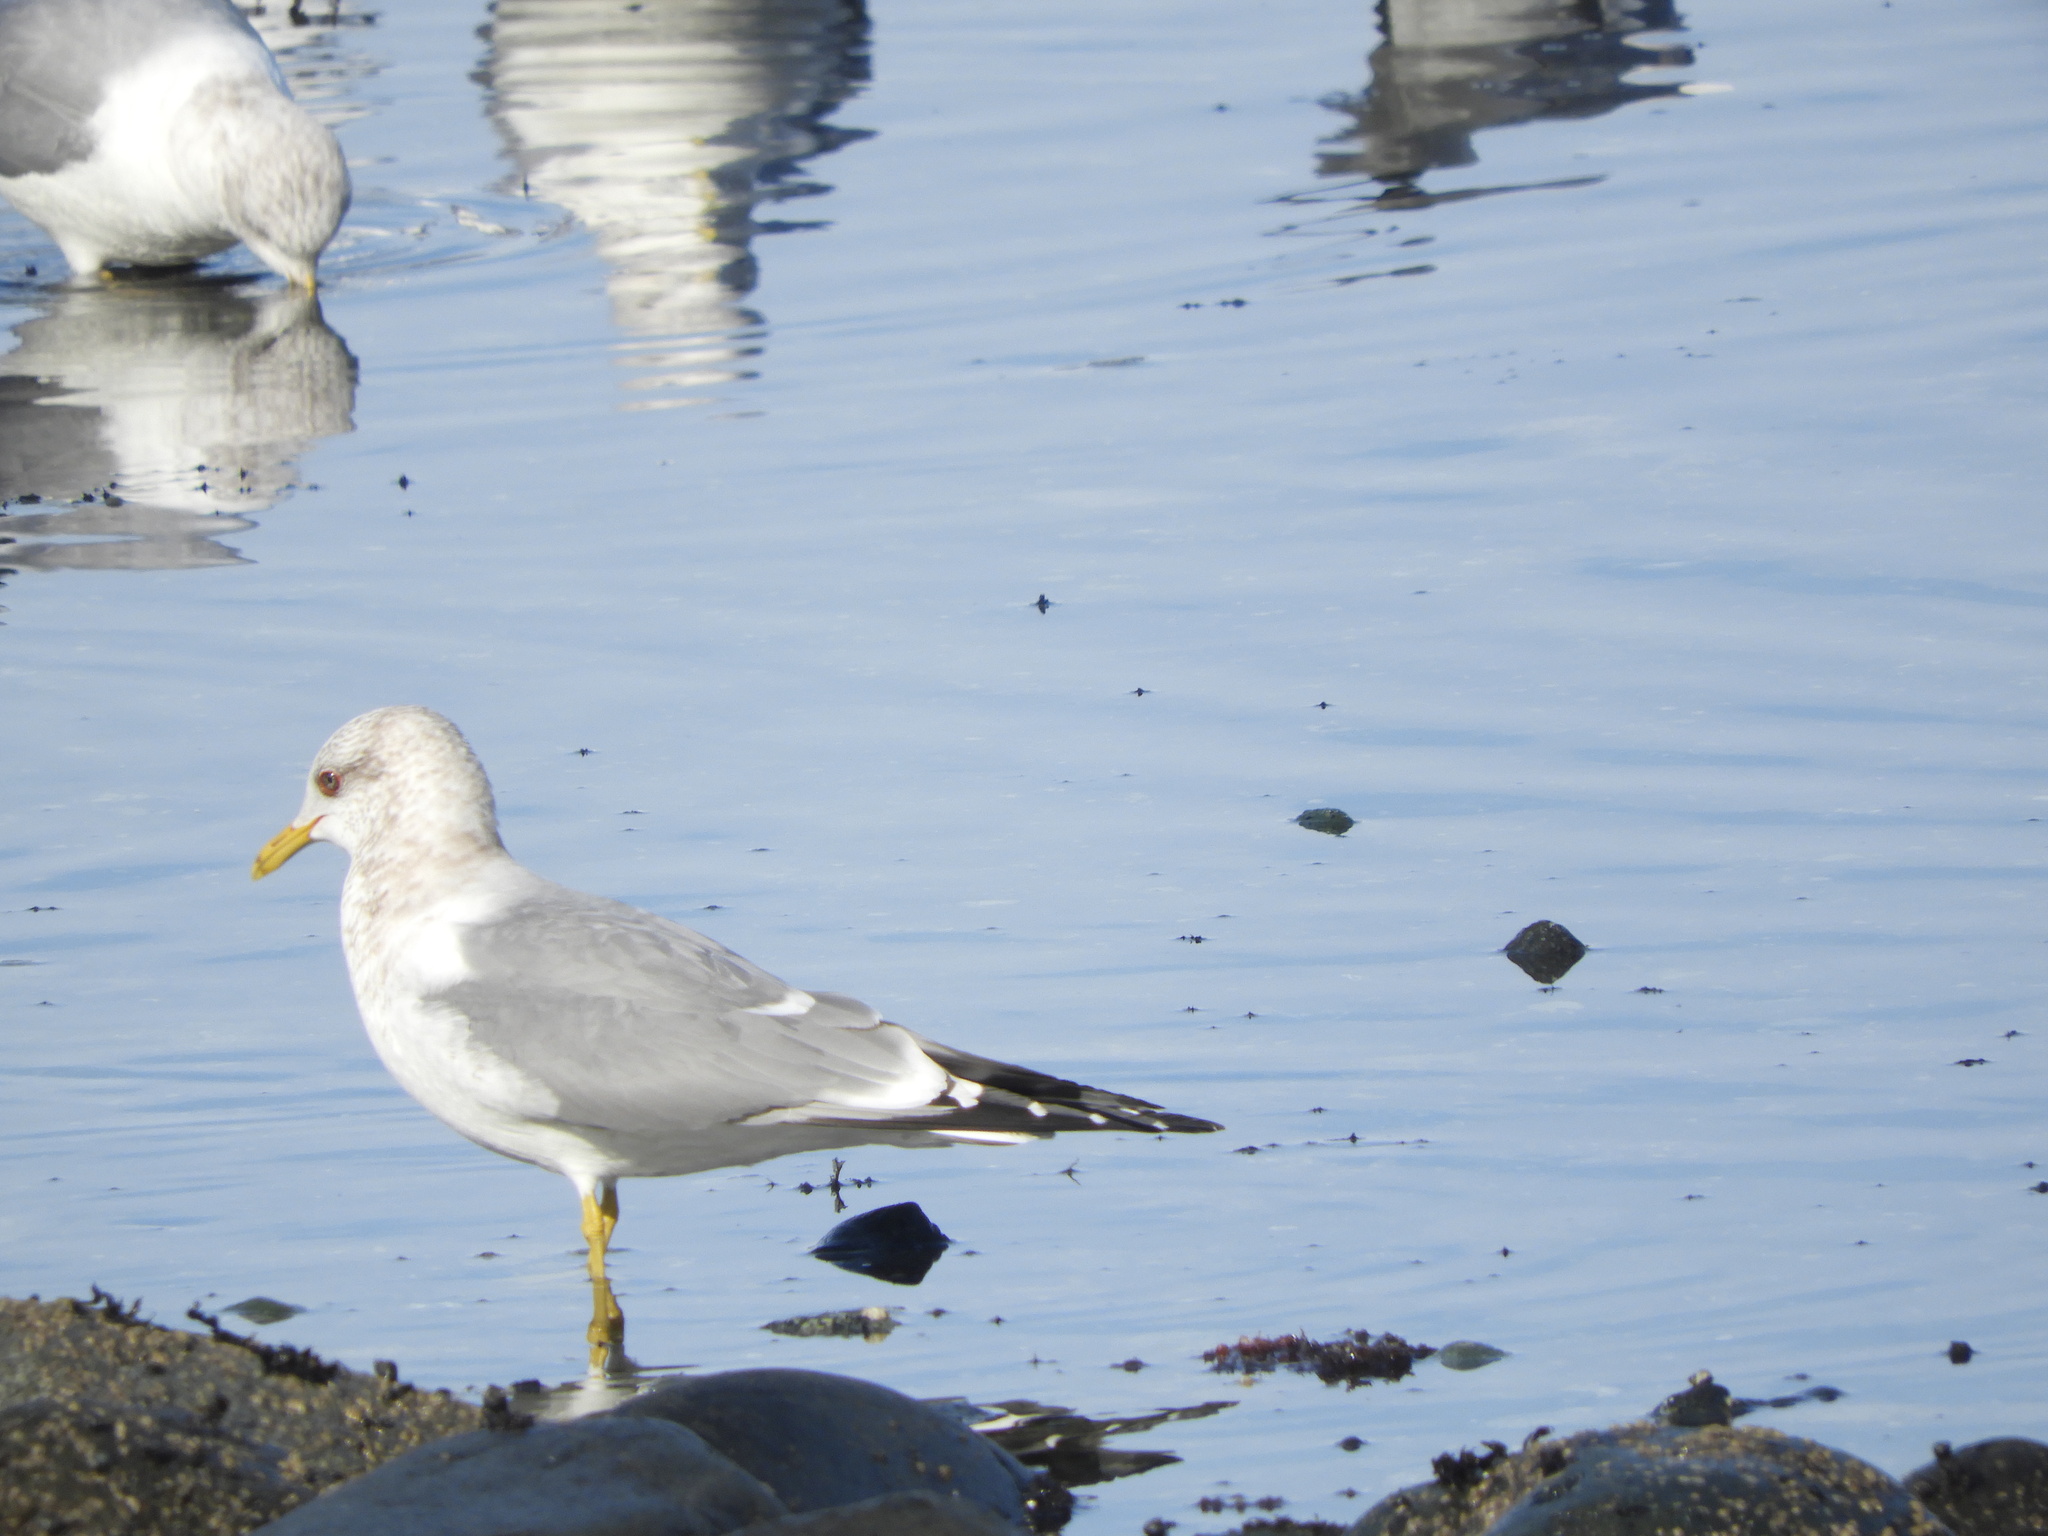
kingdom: Animalia
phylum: Chordata
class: Aves
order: Charadriiformes
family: Laridae
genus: Larus
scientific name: Larus brachyrhynchus
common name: Short-billed gull
